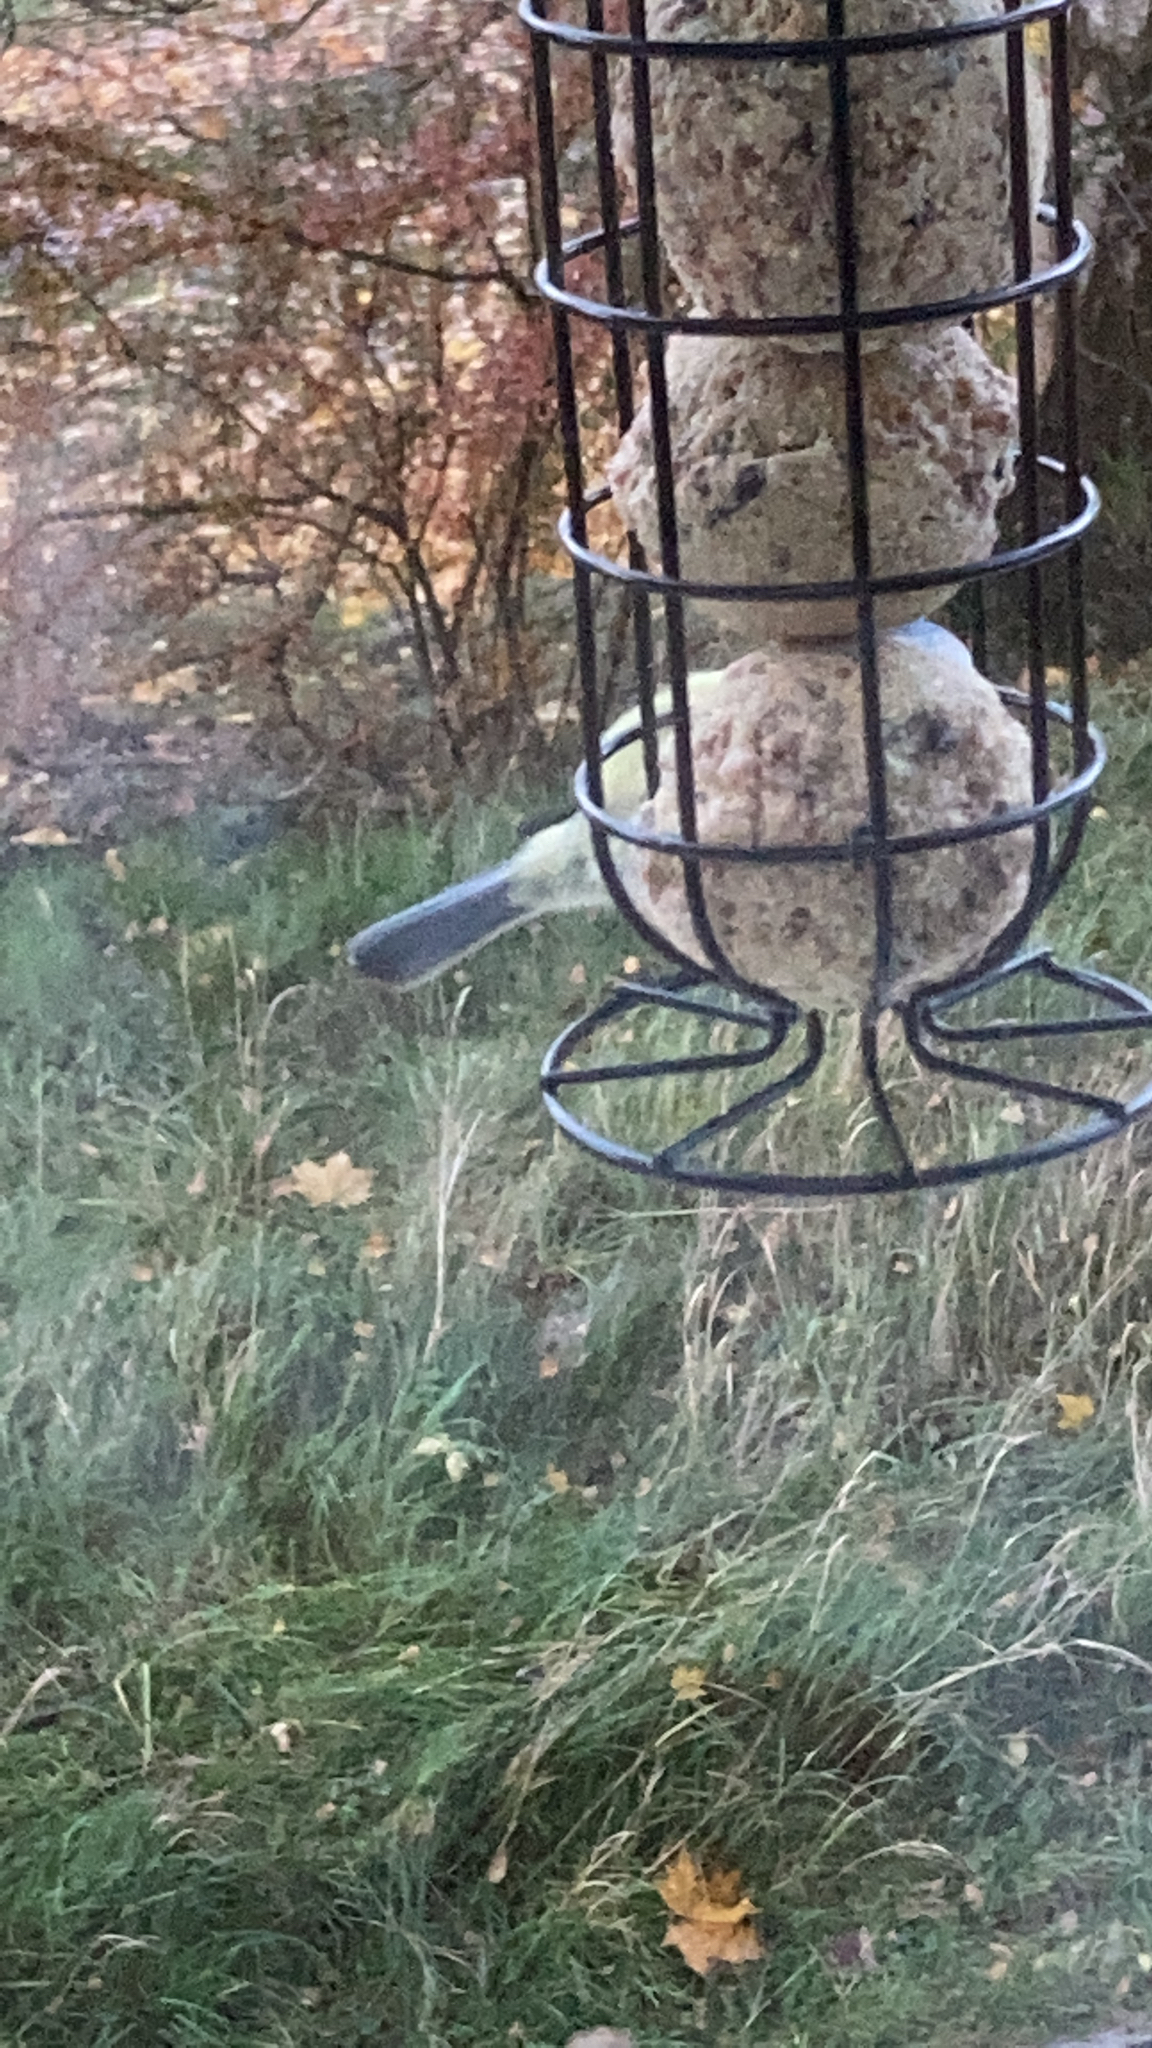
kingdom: Animalia
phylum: Chordata
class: Aves
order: Passeriformes
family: Paridae
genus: Cyanistes
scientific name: Cyanistes caeruleus
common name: Eurasian blue tit
